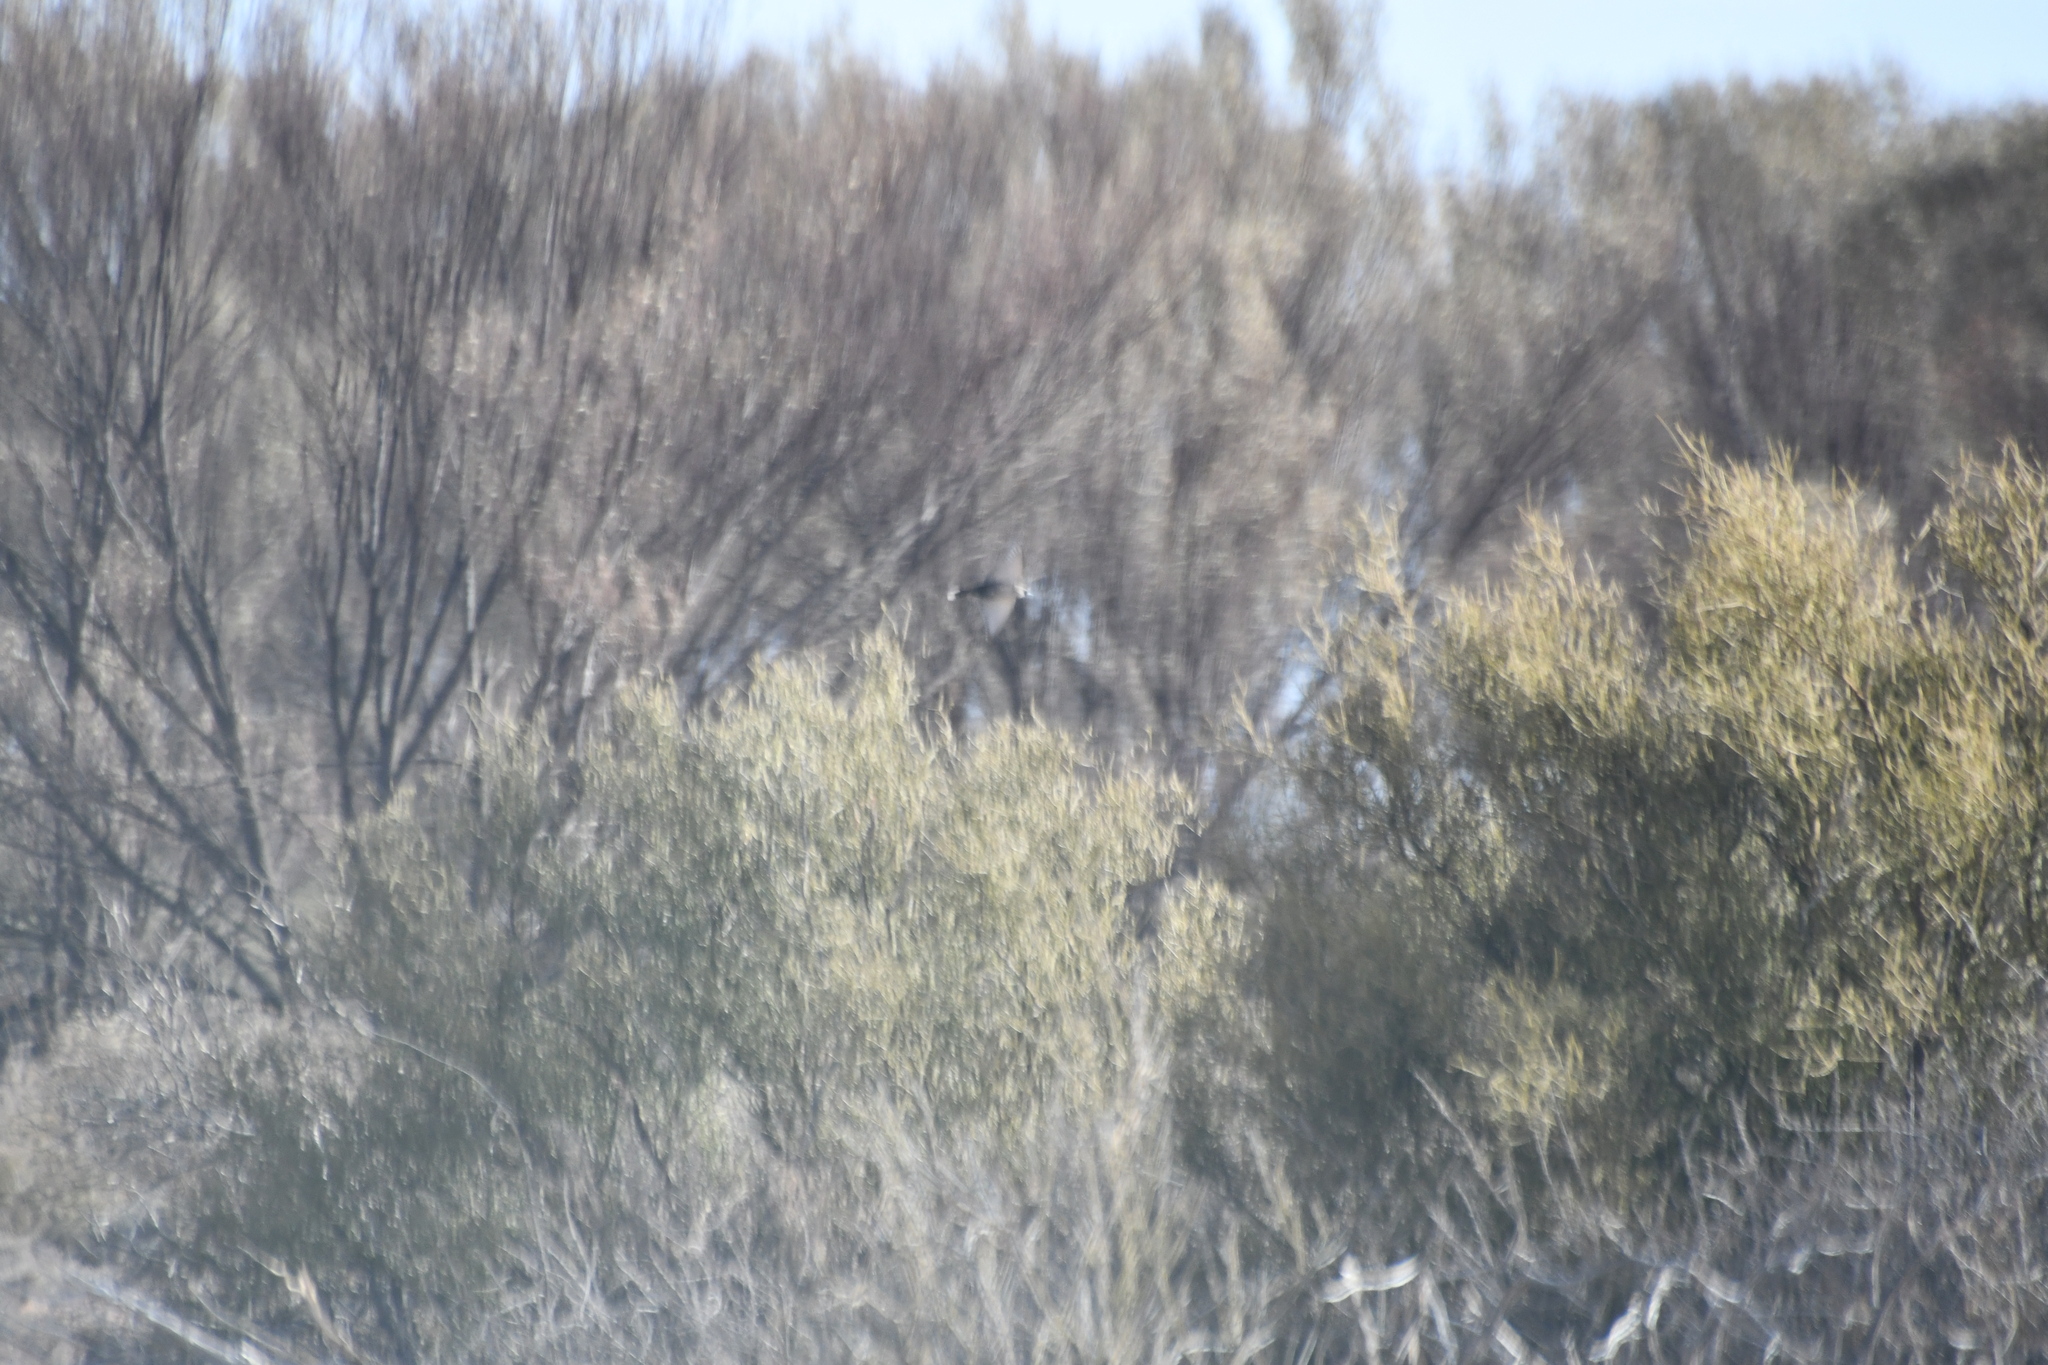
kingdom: Animalia
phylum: Chordata
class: Aves
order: Passeriformes
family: Artamidae
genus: Artamus
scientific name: Artamus cinereus
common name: Black-faced woodswallow
